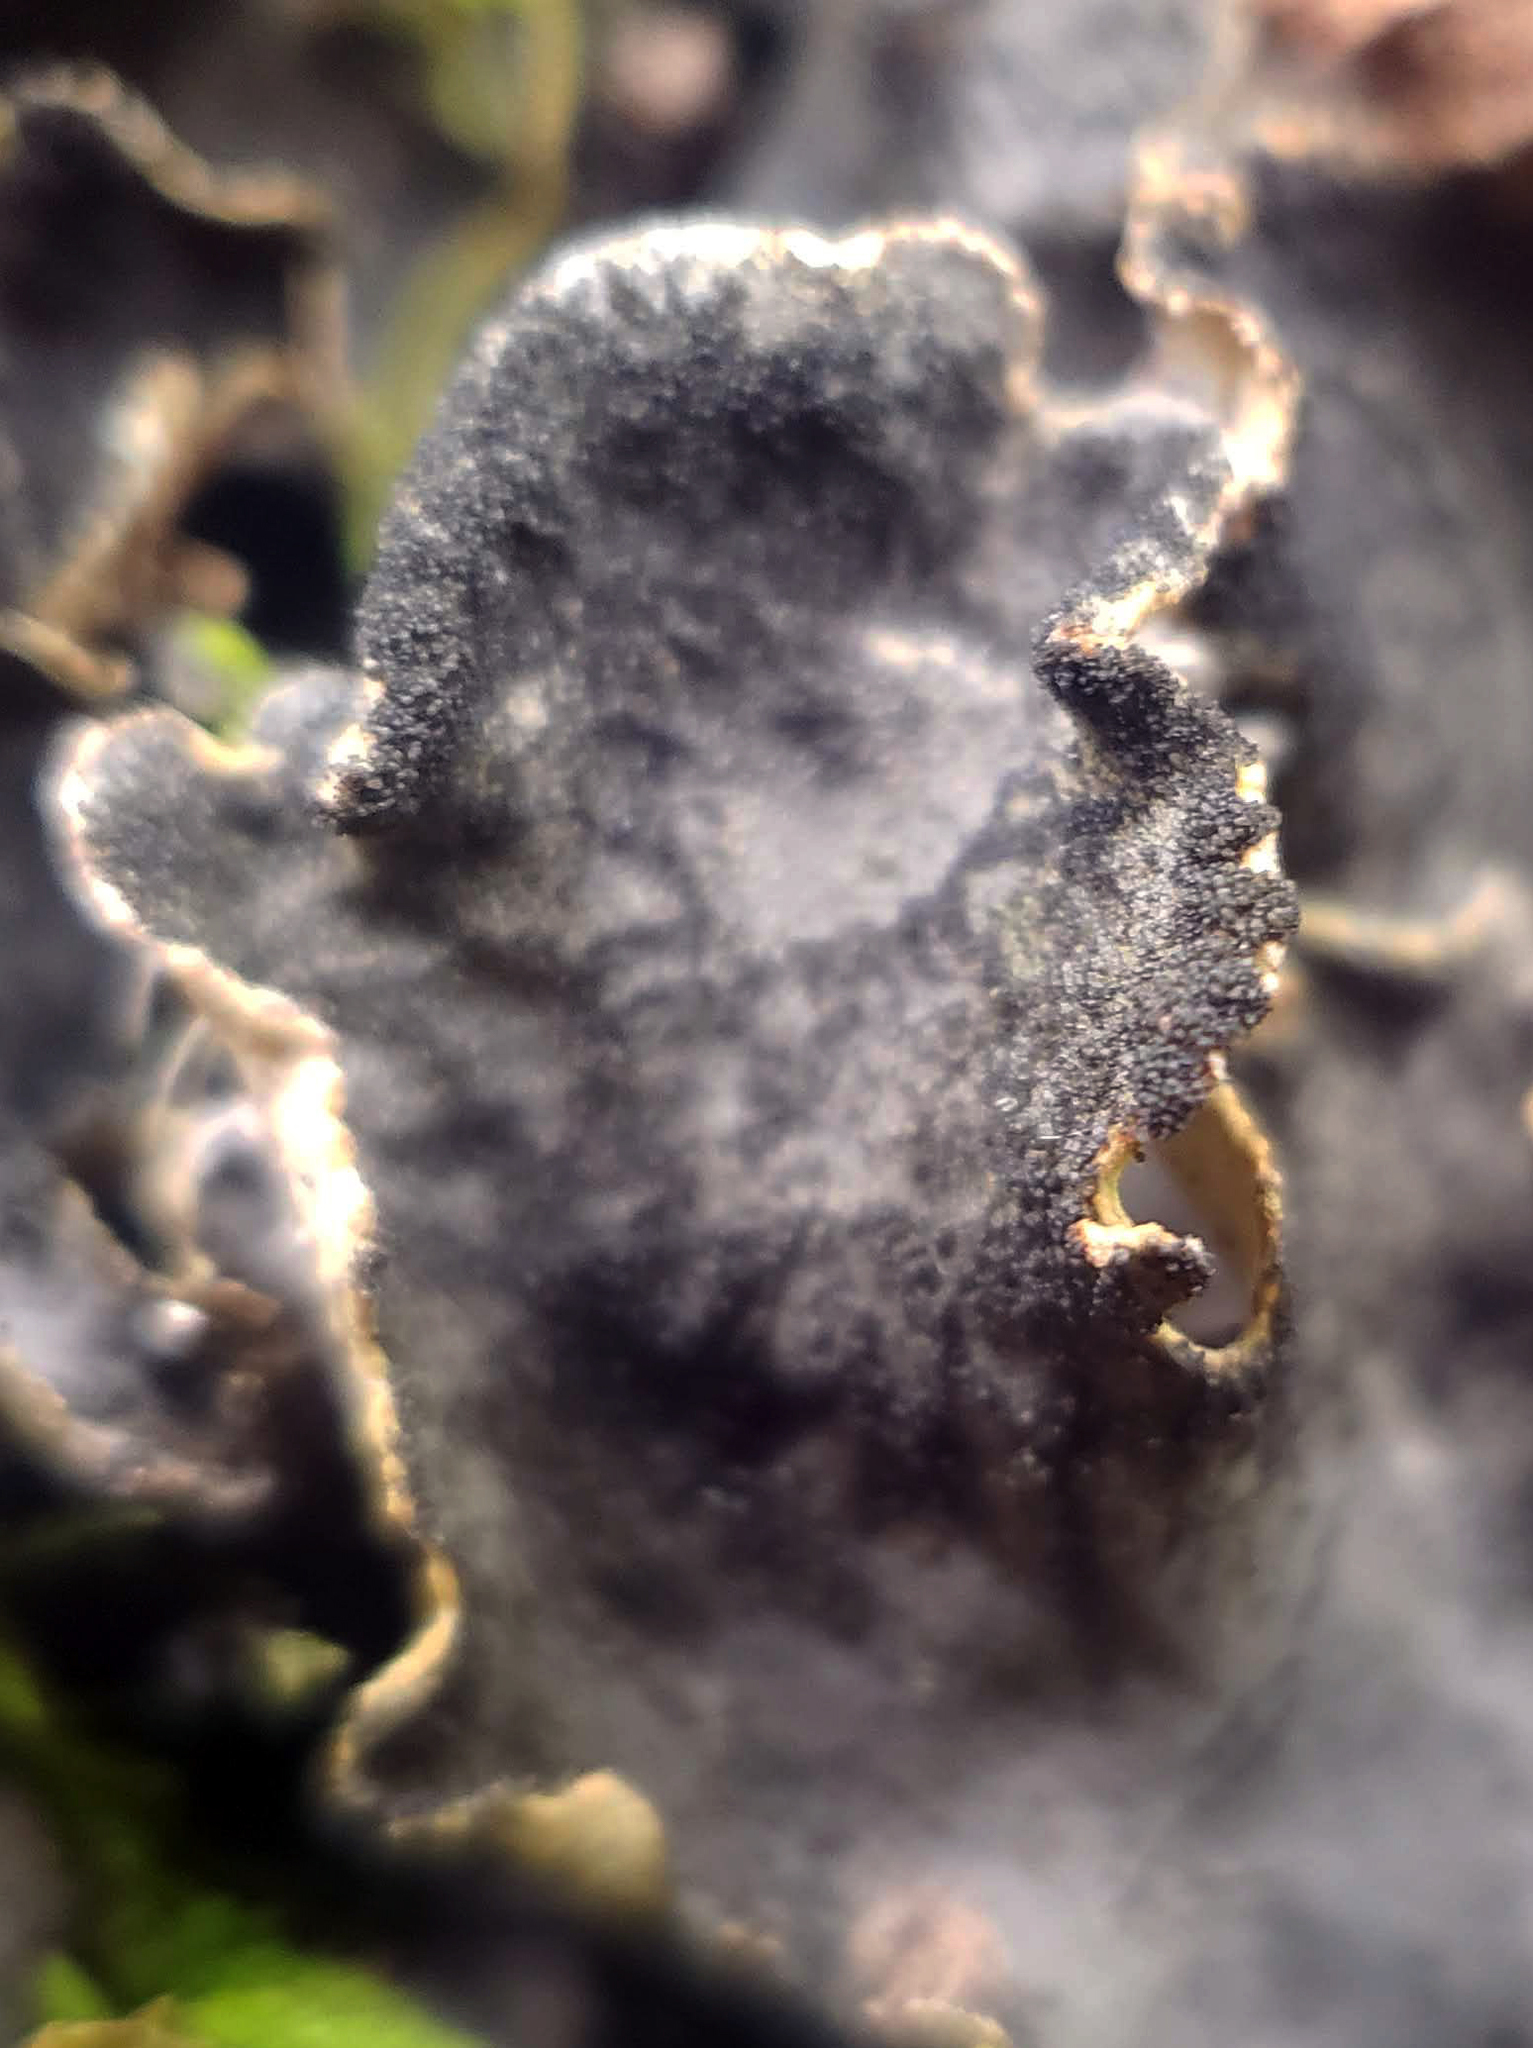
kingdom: Fungi
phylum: Ascomycota
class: Lecanoromycetes
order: Peltigerales
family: Peltigeraceae
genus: Peltigera
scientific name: Peltigera evansiana
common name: Peppered pelt lichen
